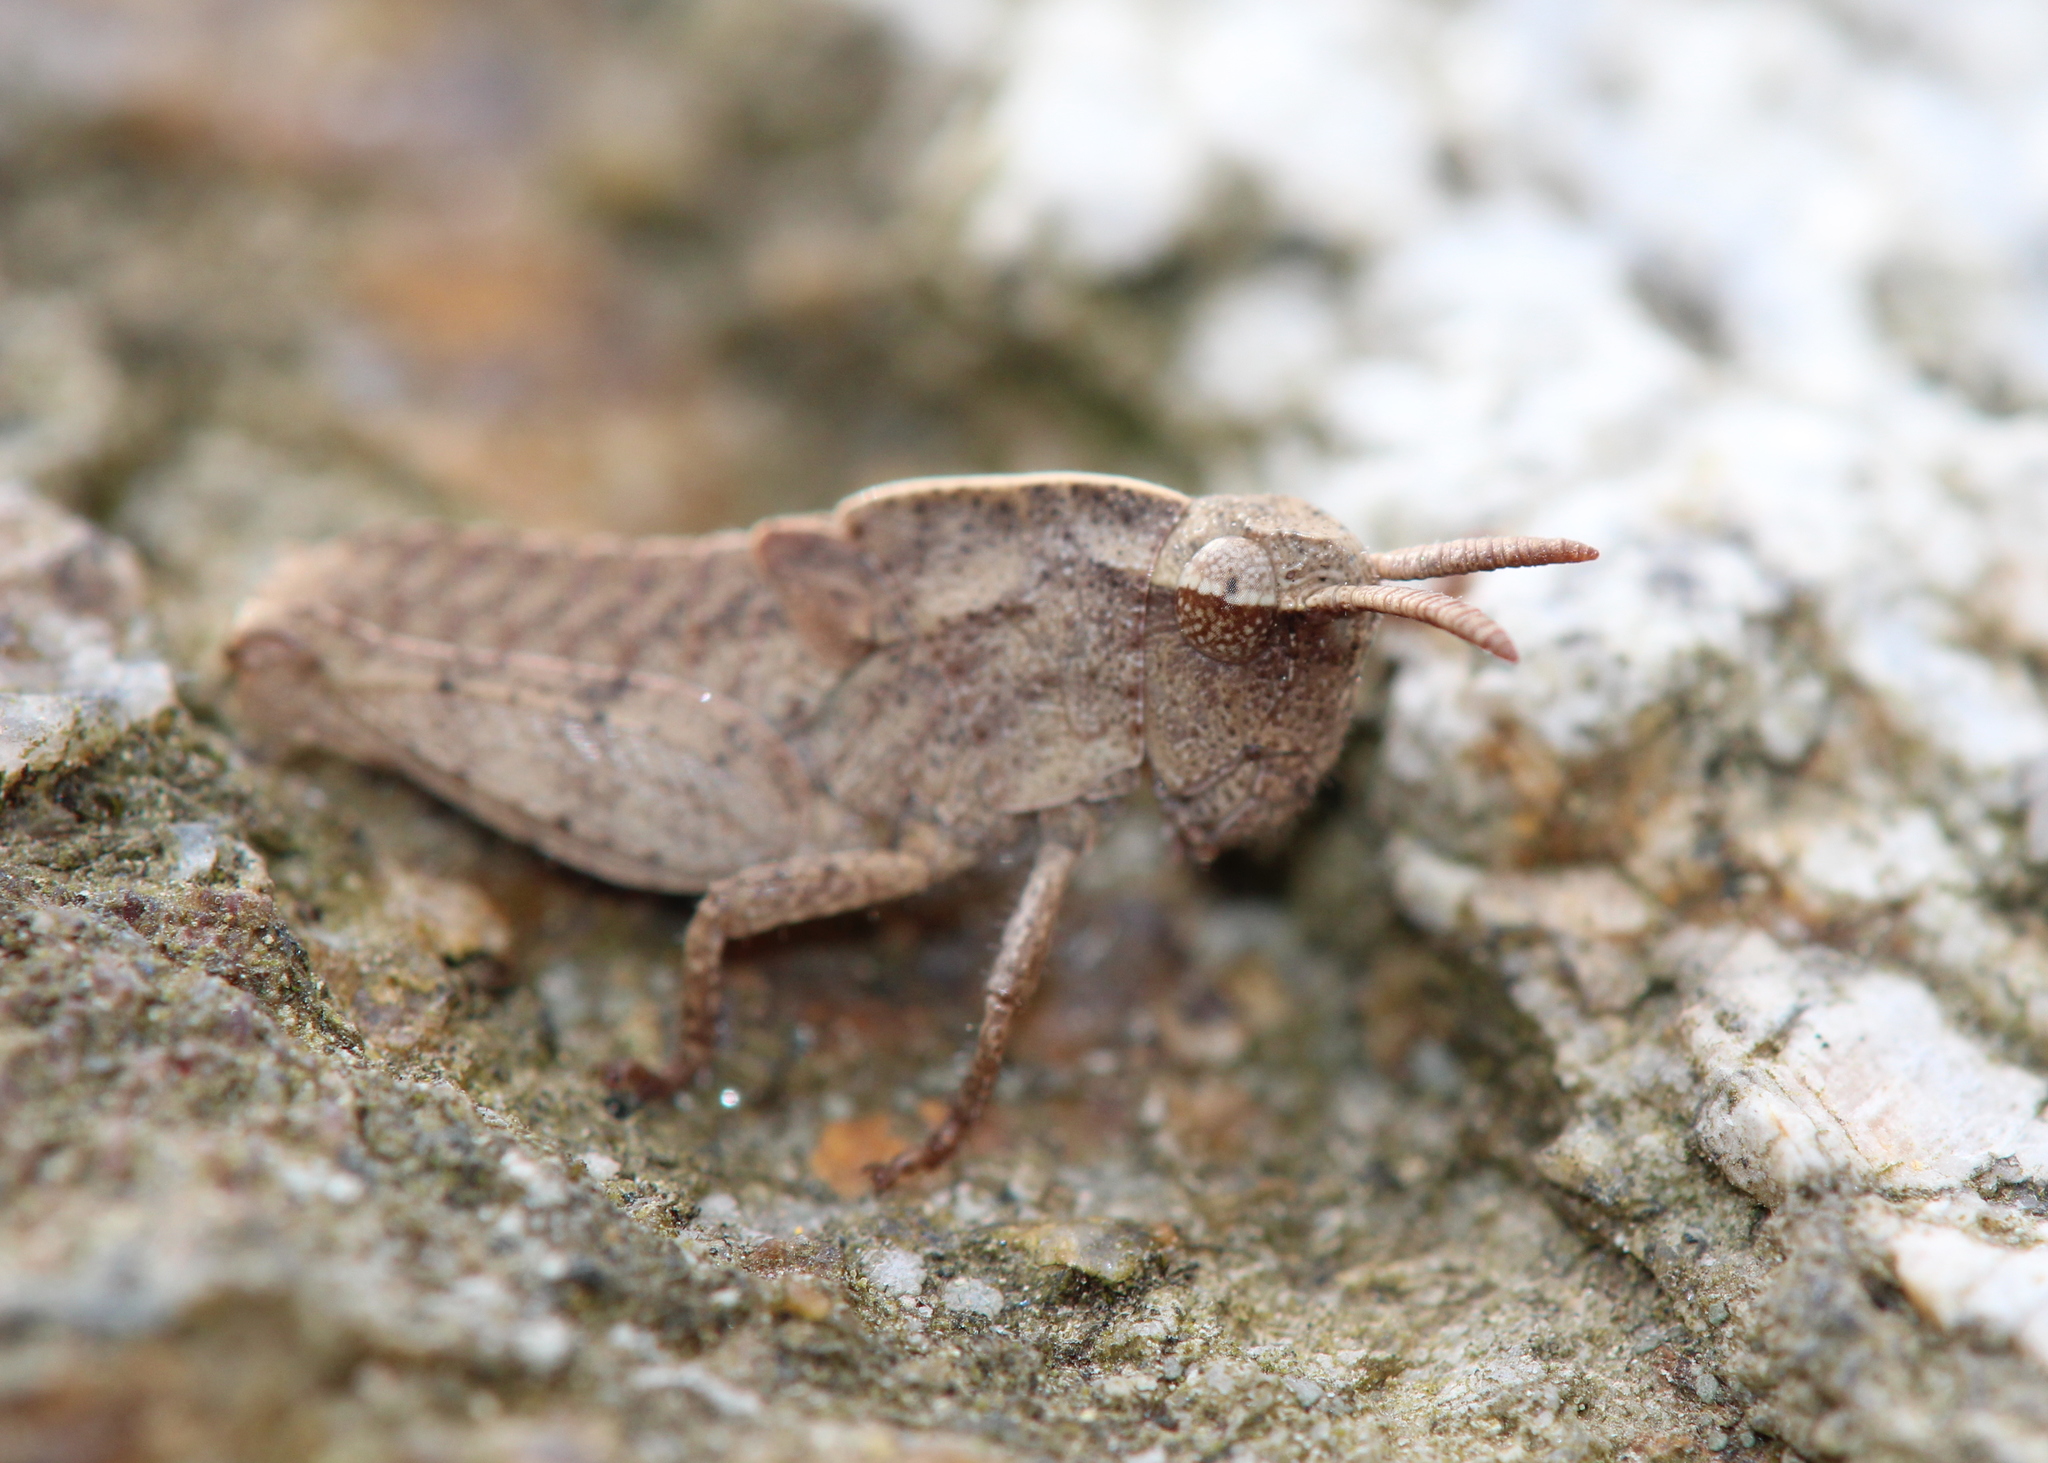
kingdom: Animalia
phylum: Arthropoda
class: Insecta
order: Orthoptera
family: Acrididae
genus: Chortophaga
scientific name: Chortophaga viridifasciata
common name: Green-striped grasshopper
